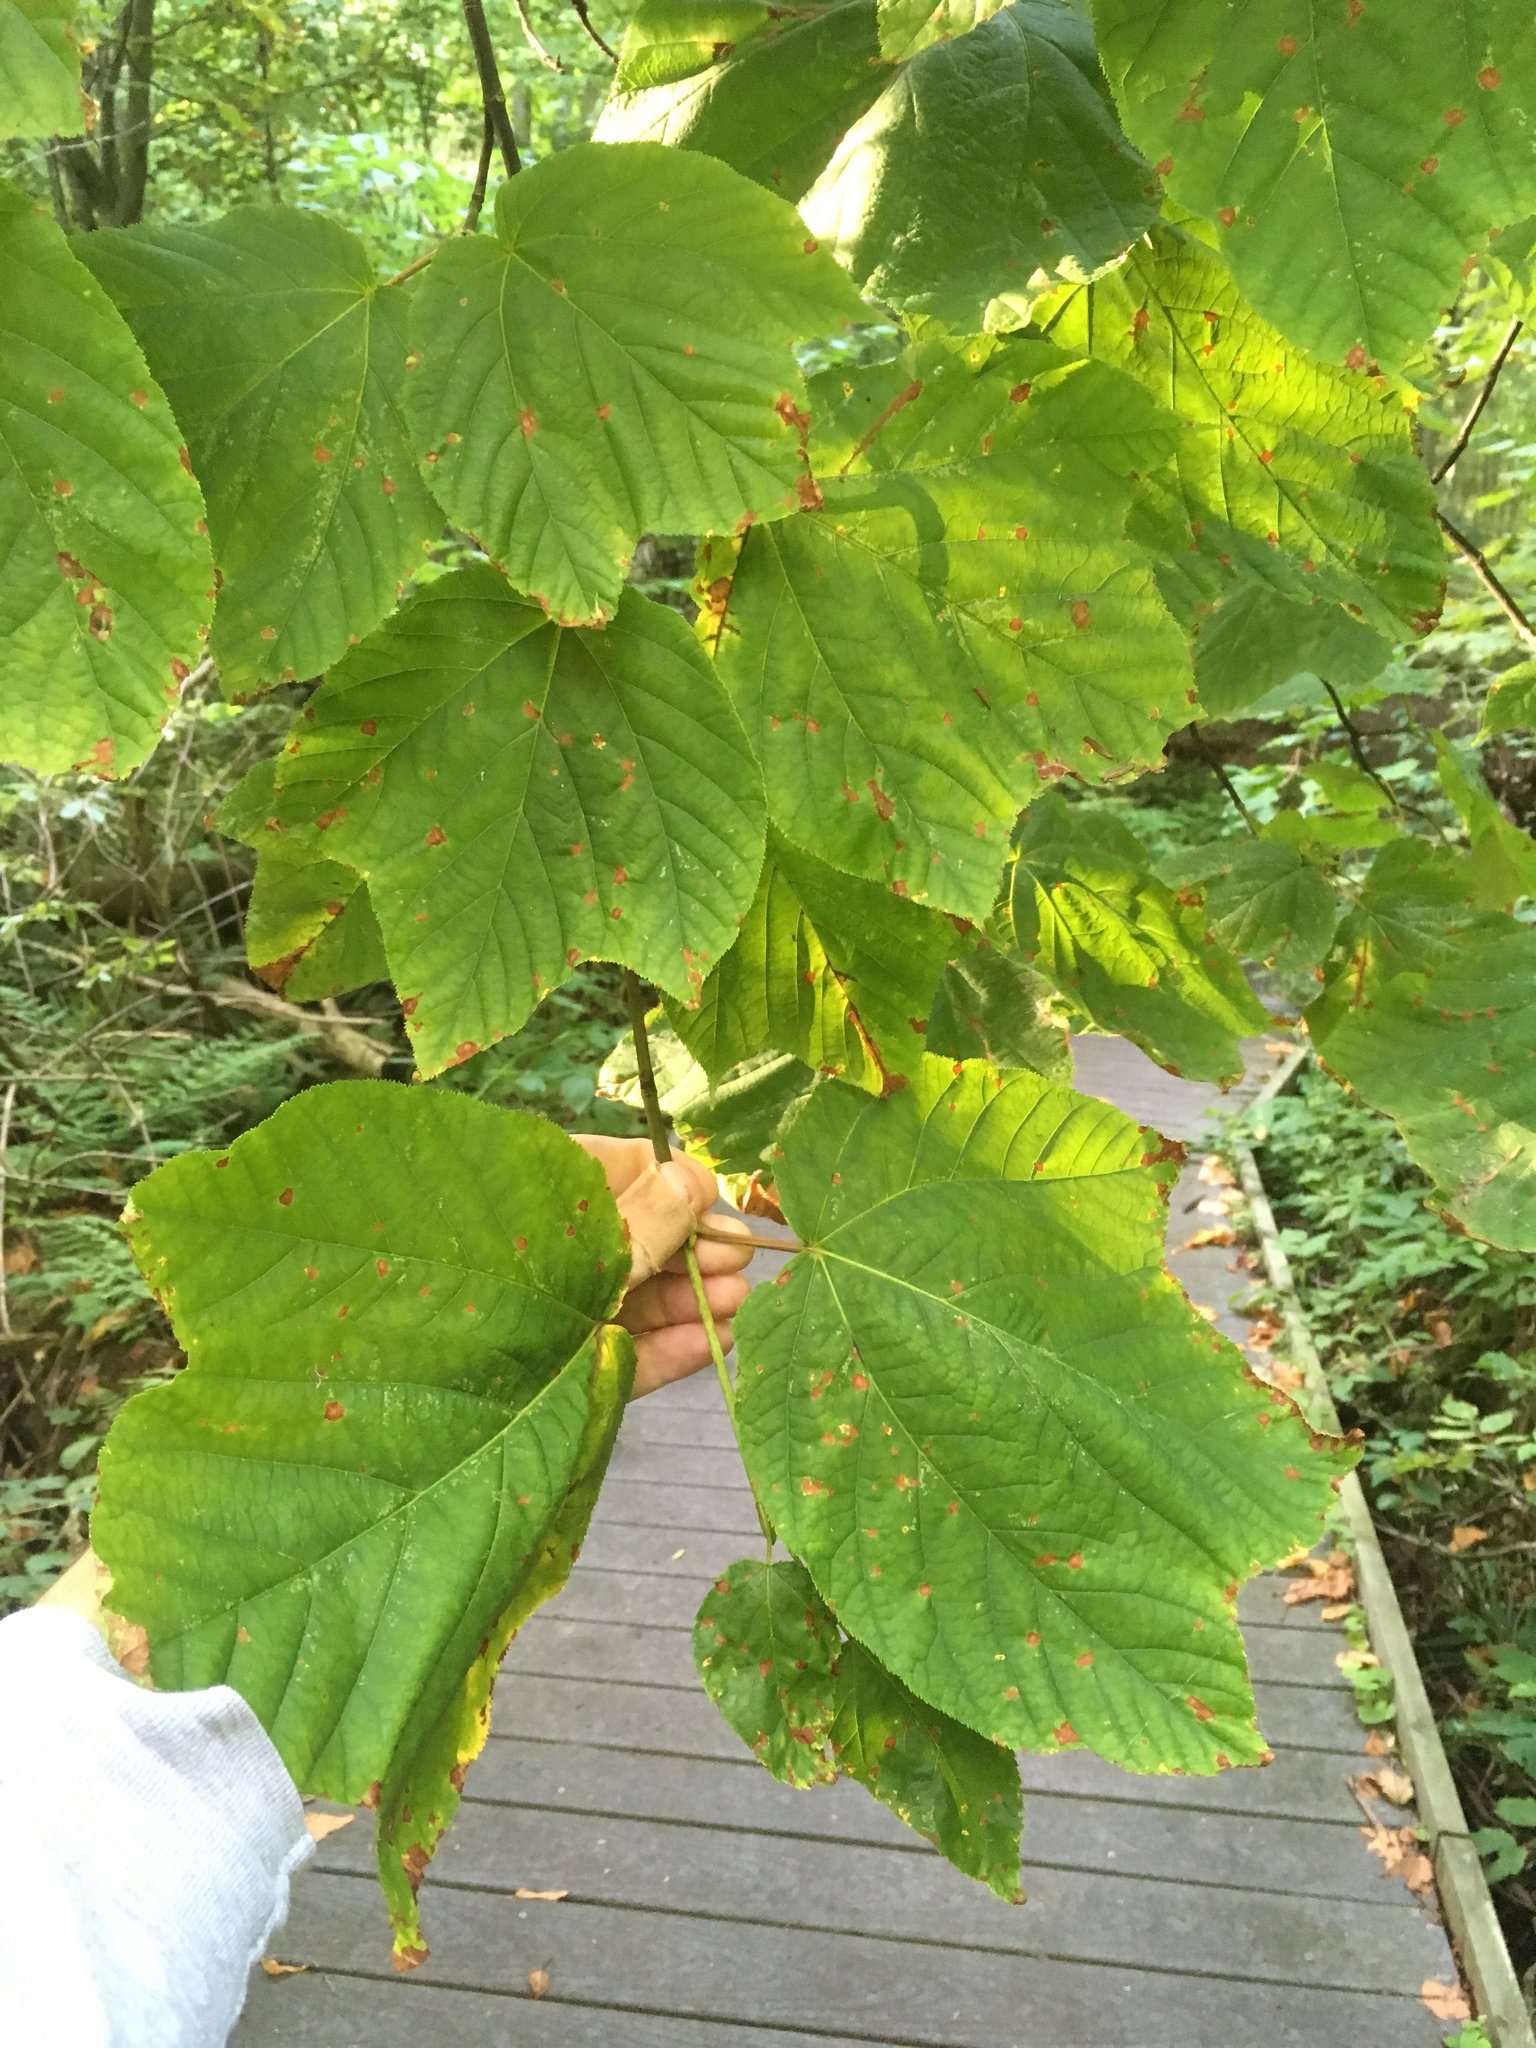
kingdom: Plantae
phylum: Tracheophyta
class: Magnoliopsida
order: Sapindales
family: Sapindaceae
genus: Acer
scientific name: Acer pensylvanicum
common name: Moosewood
